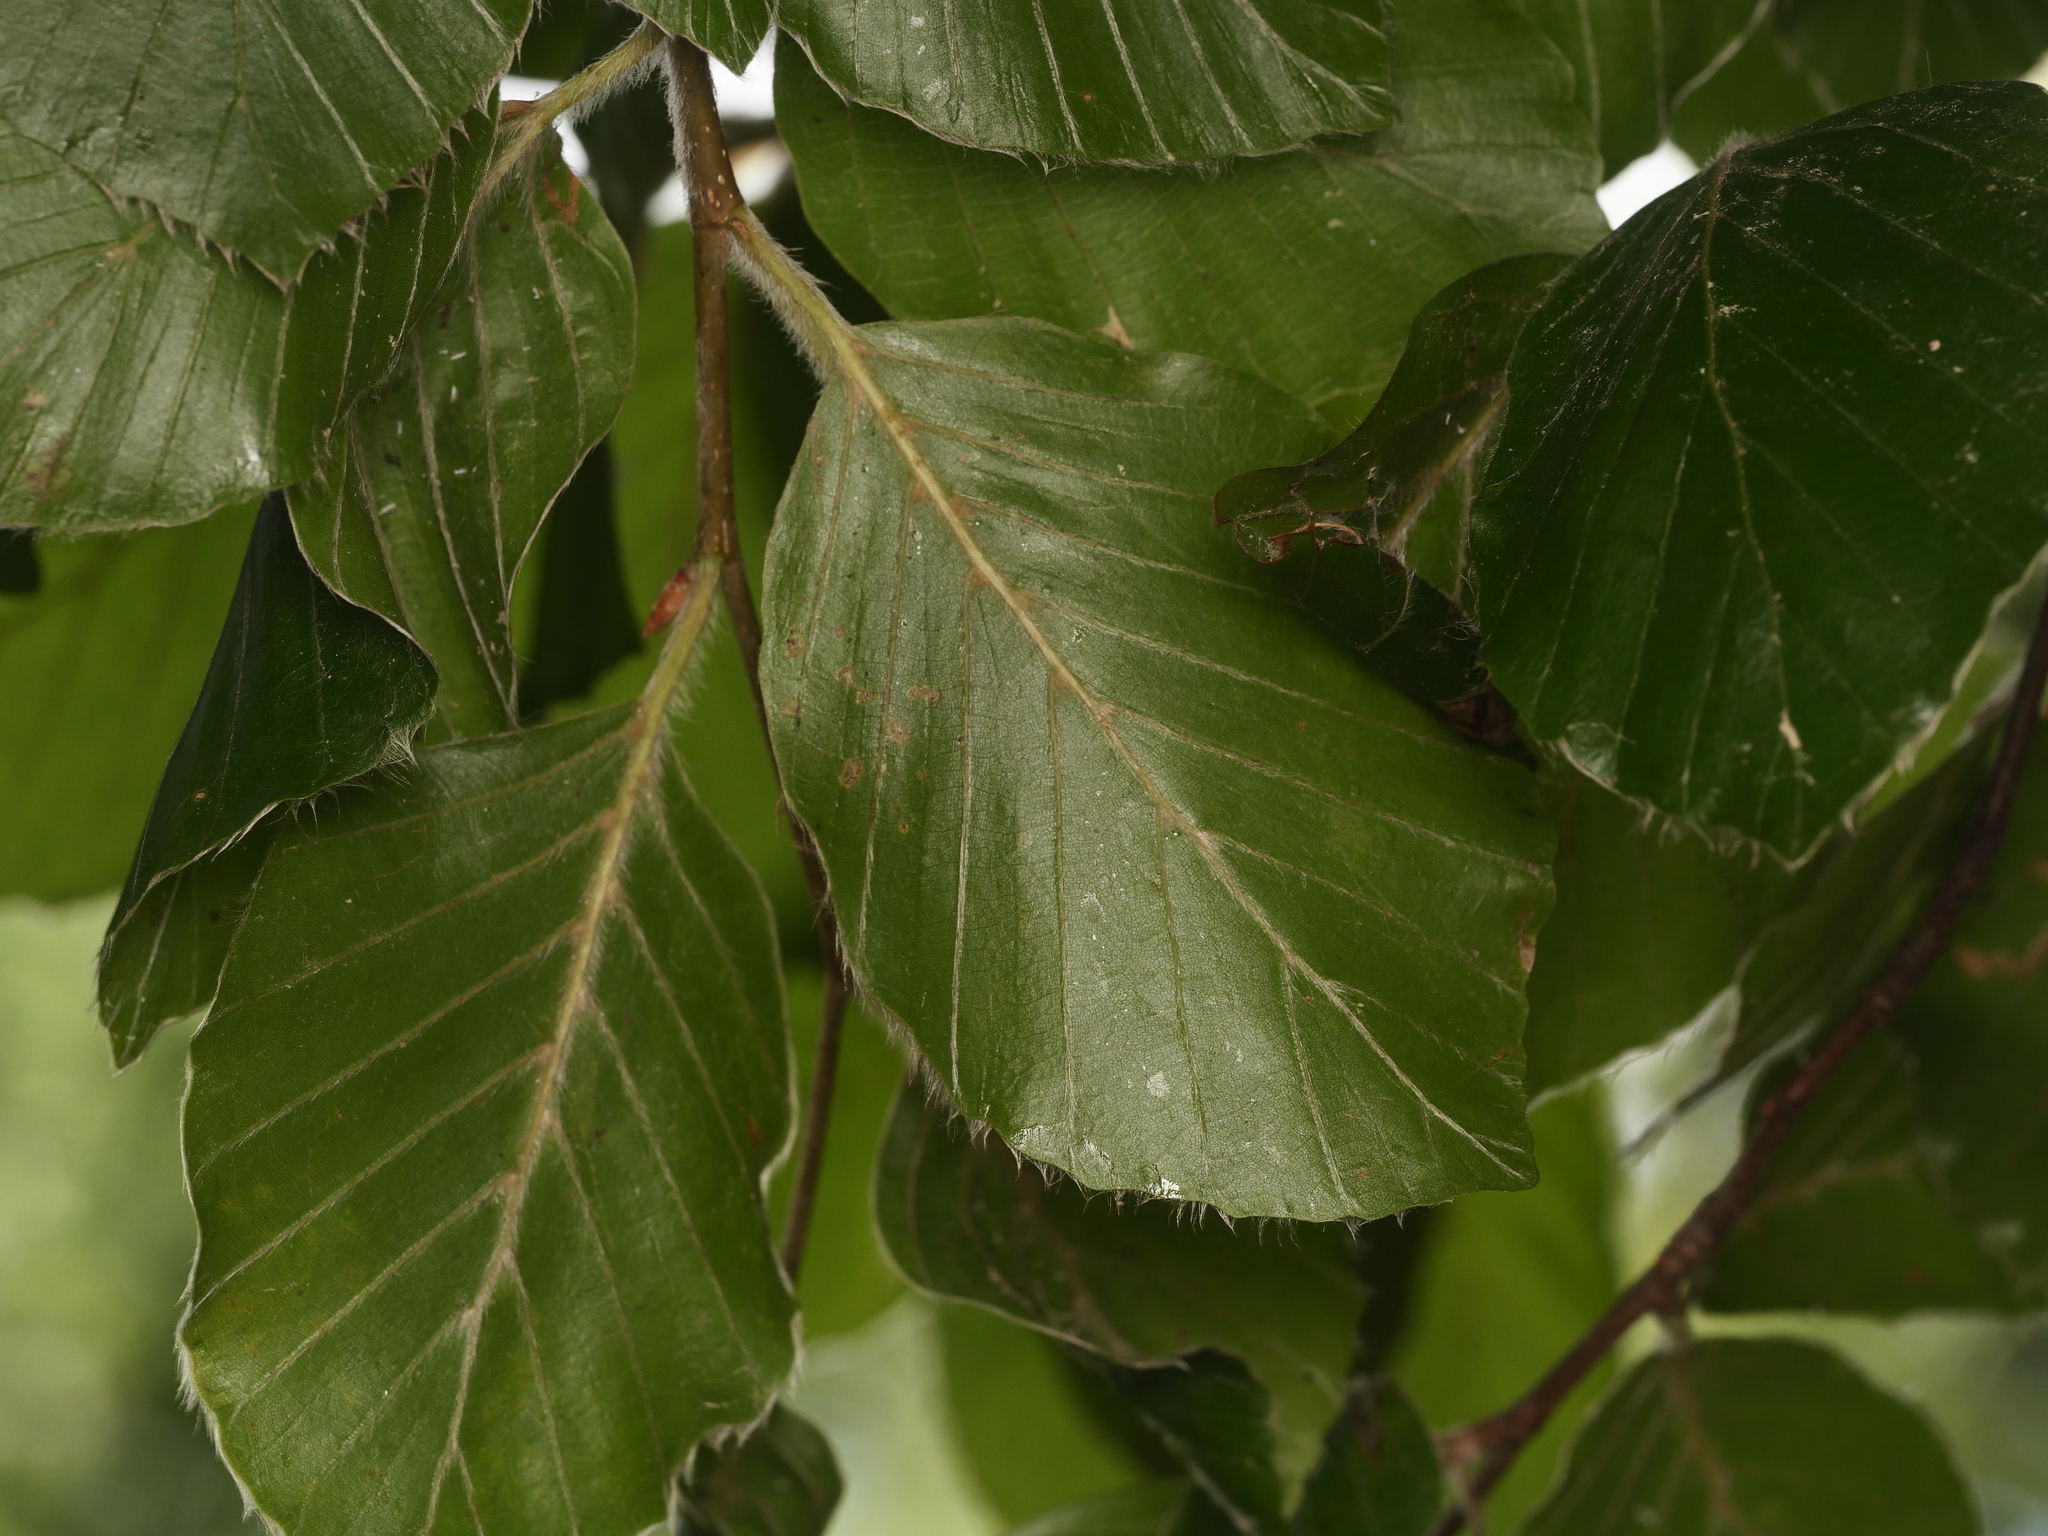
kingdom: Plantae
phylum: Tracheophyta
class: Magnoliopsida
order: Fagales
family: Fagaceae
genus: Fagus
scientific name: Fagus sylvatica
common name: Beech
